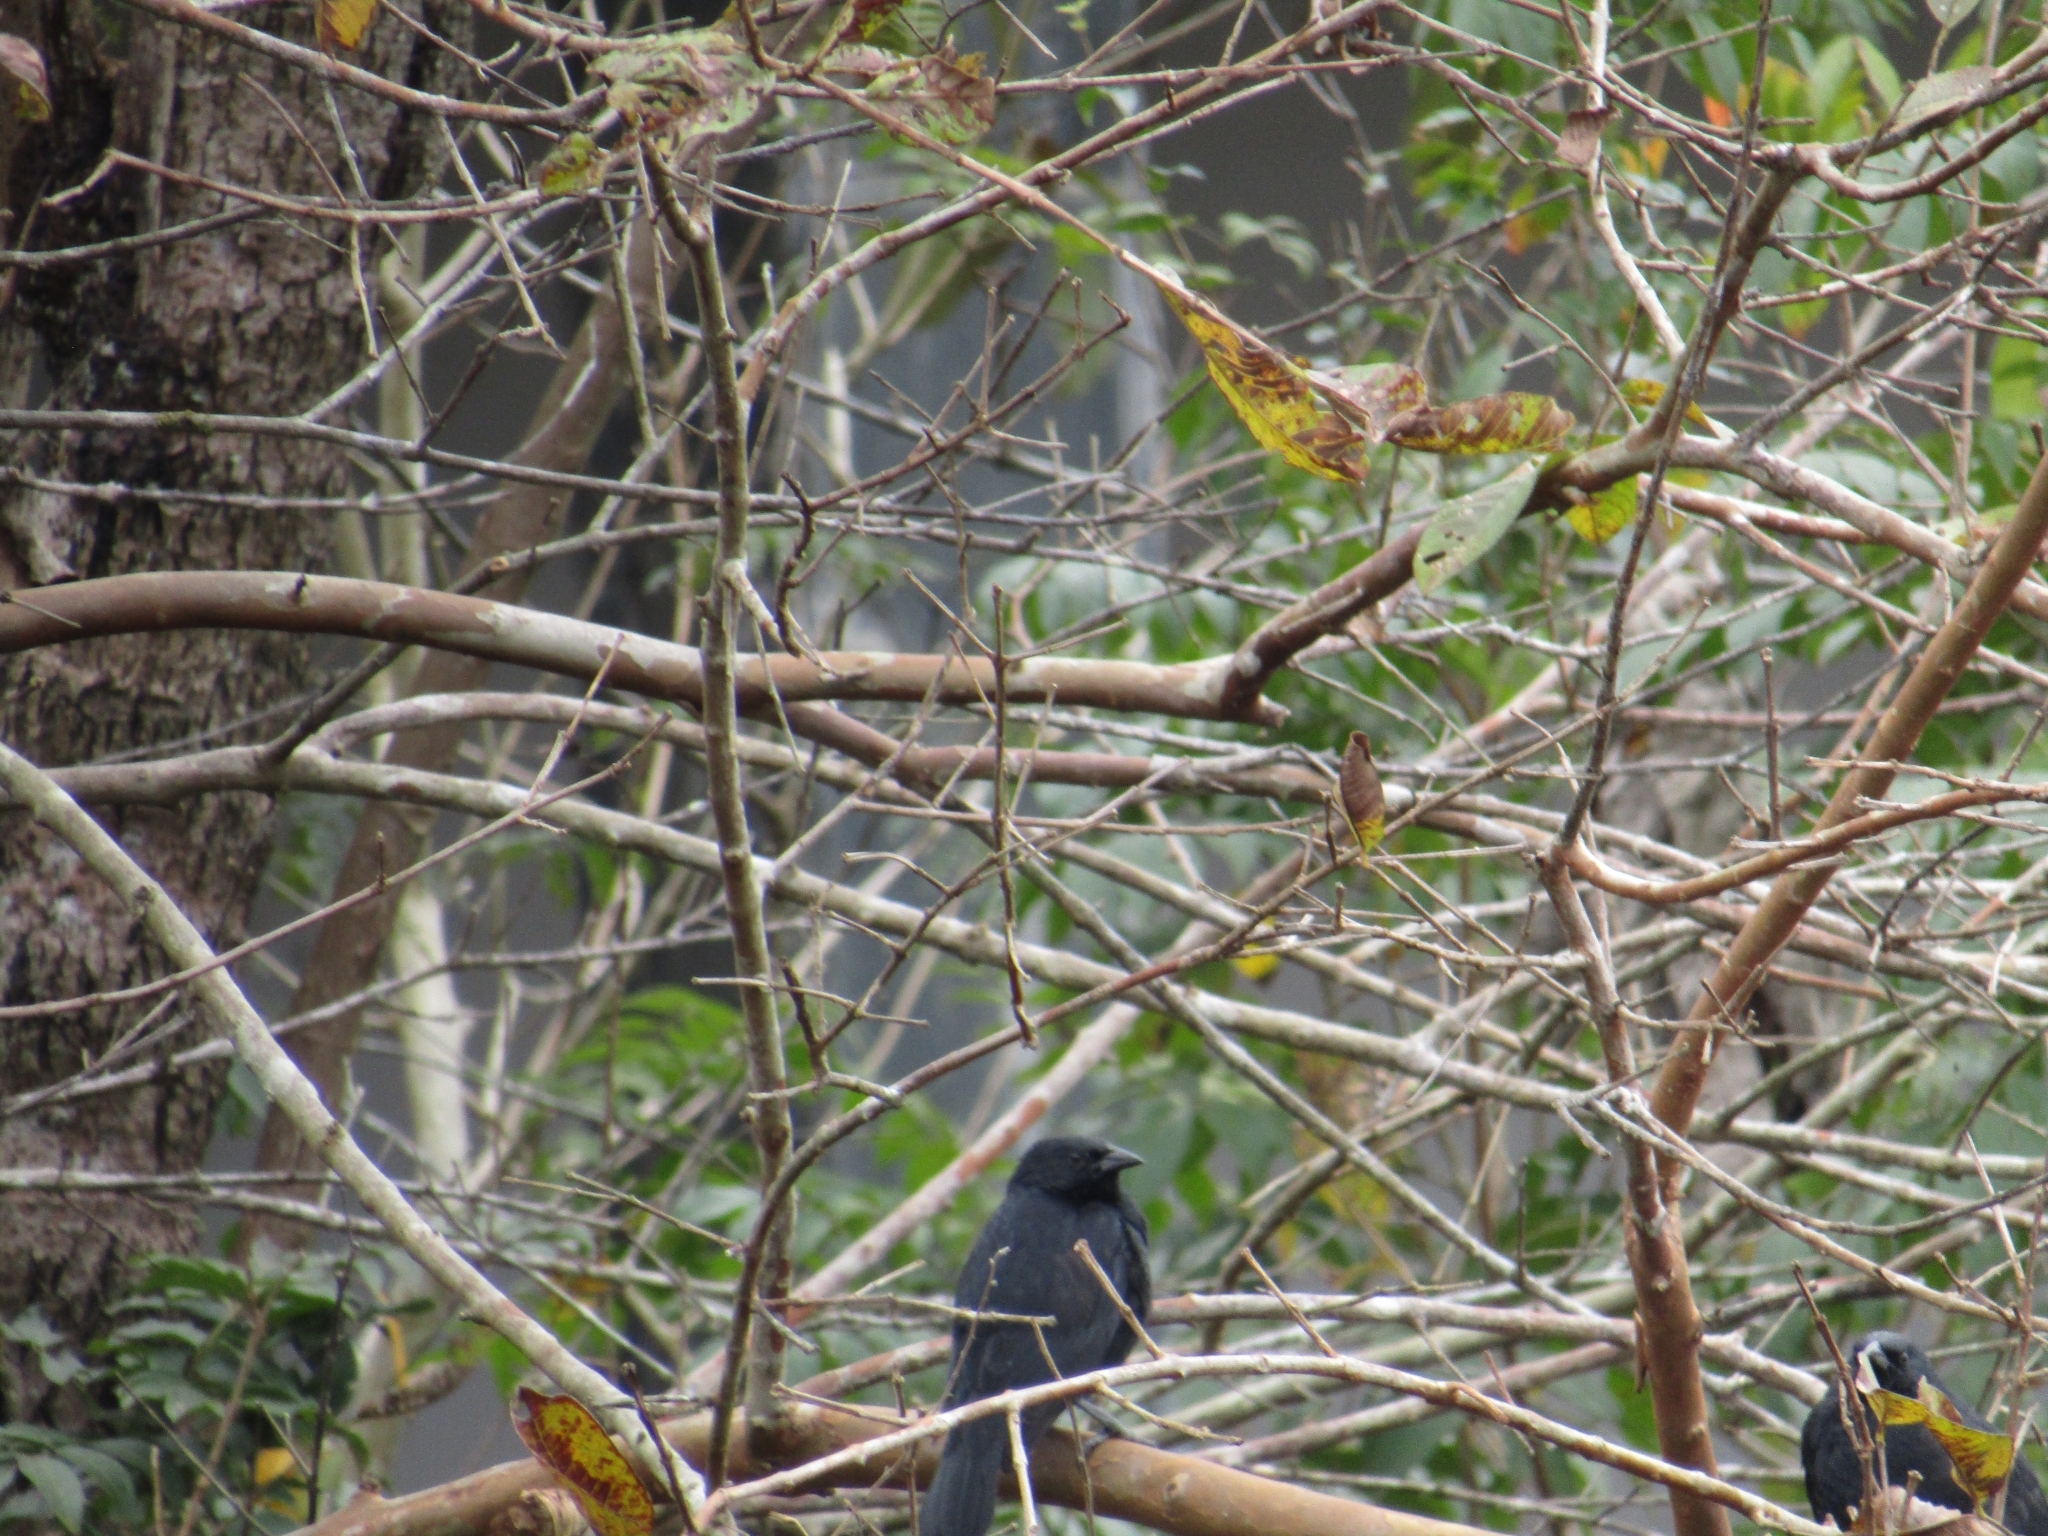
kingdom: Animalia
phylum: Chordata
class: Aves
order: Passeriformes
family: Icteridae
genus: Gnorimopsar
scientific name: Gnorimopsar chopi
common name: Chopi blackbird
